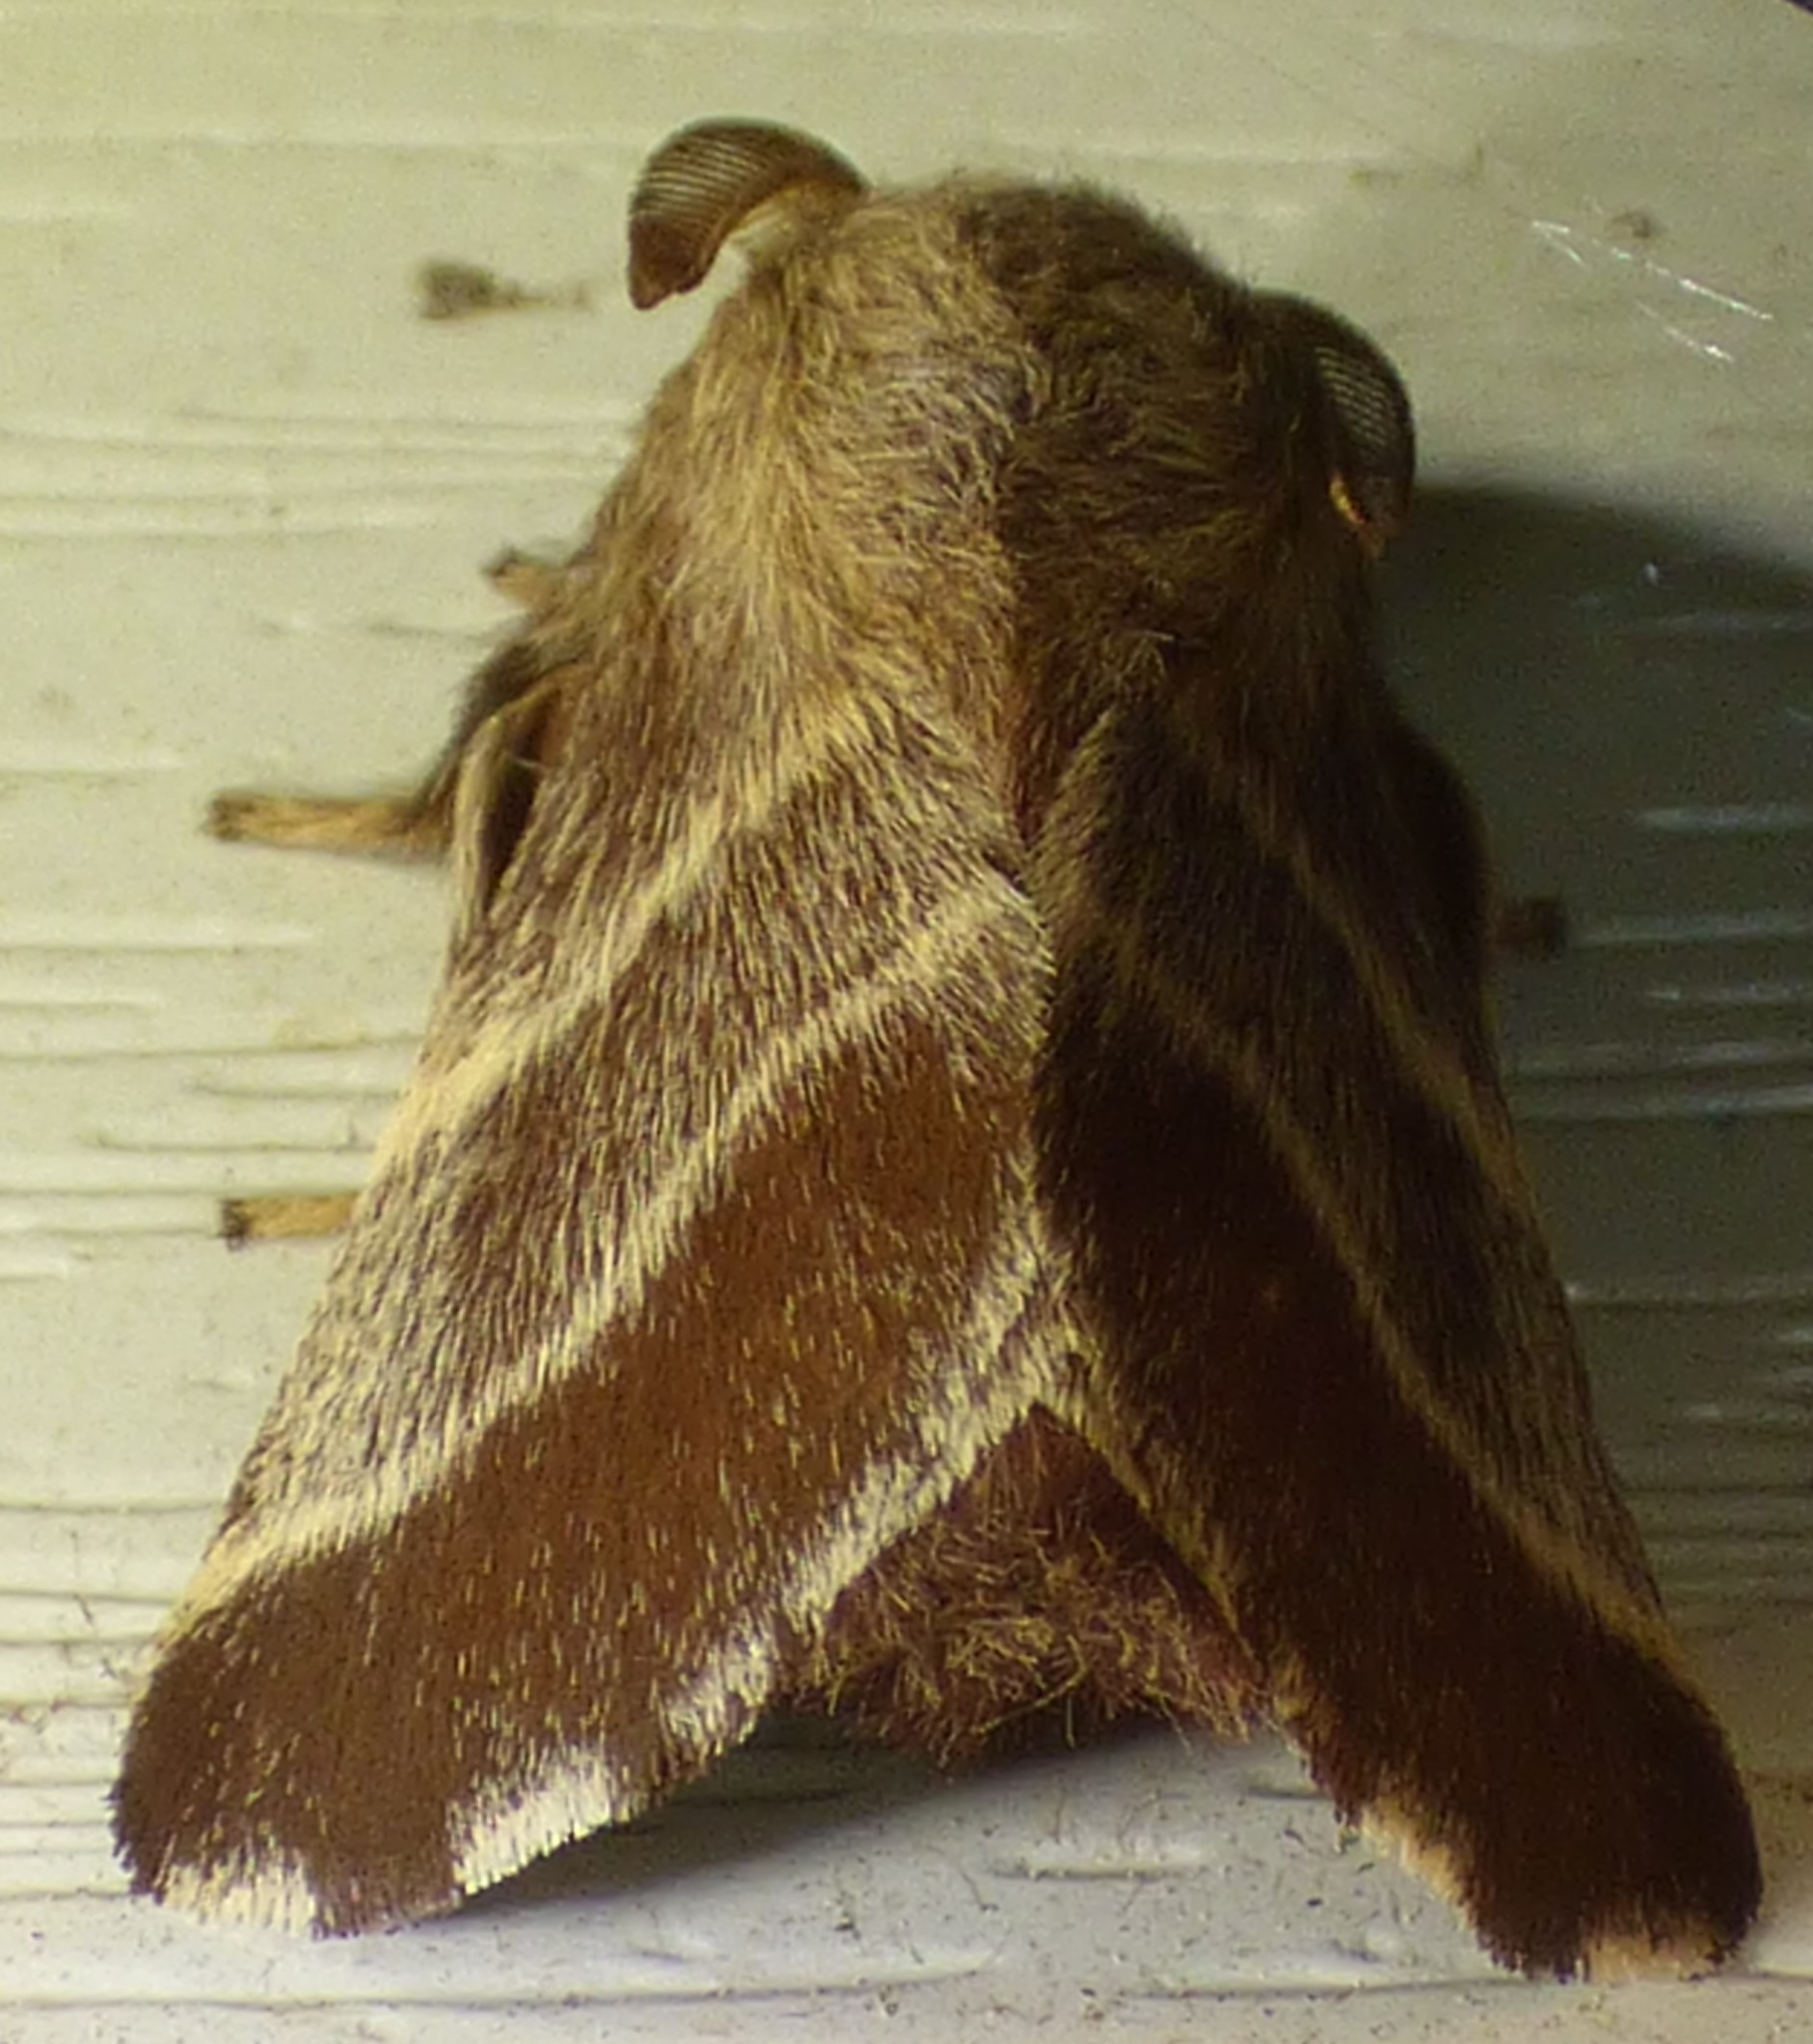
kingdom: Animalia
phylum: Arthropoda
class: Insecta
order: Lepidoptera
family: Lasiocampidae
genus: Malacosoma
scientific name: Malacosoma americana
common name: Eastern tent caterpillar moth
